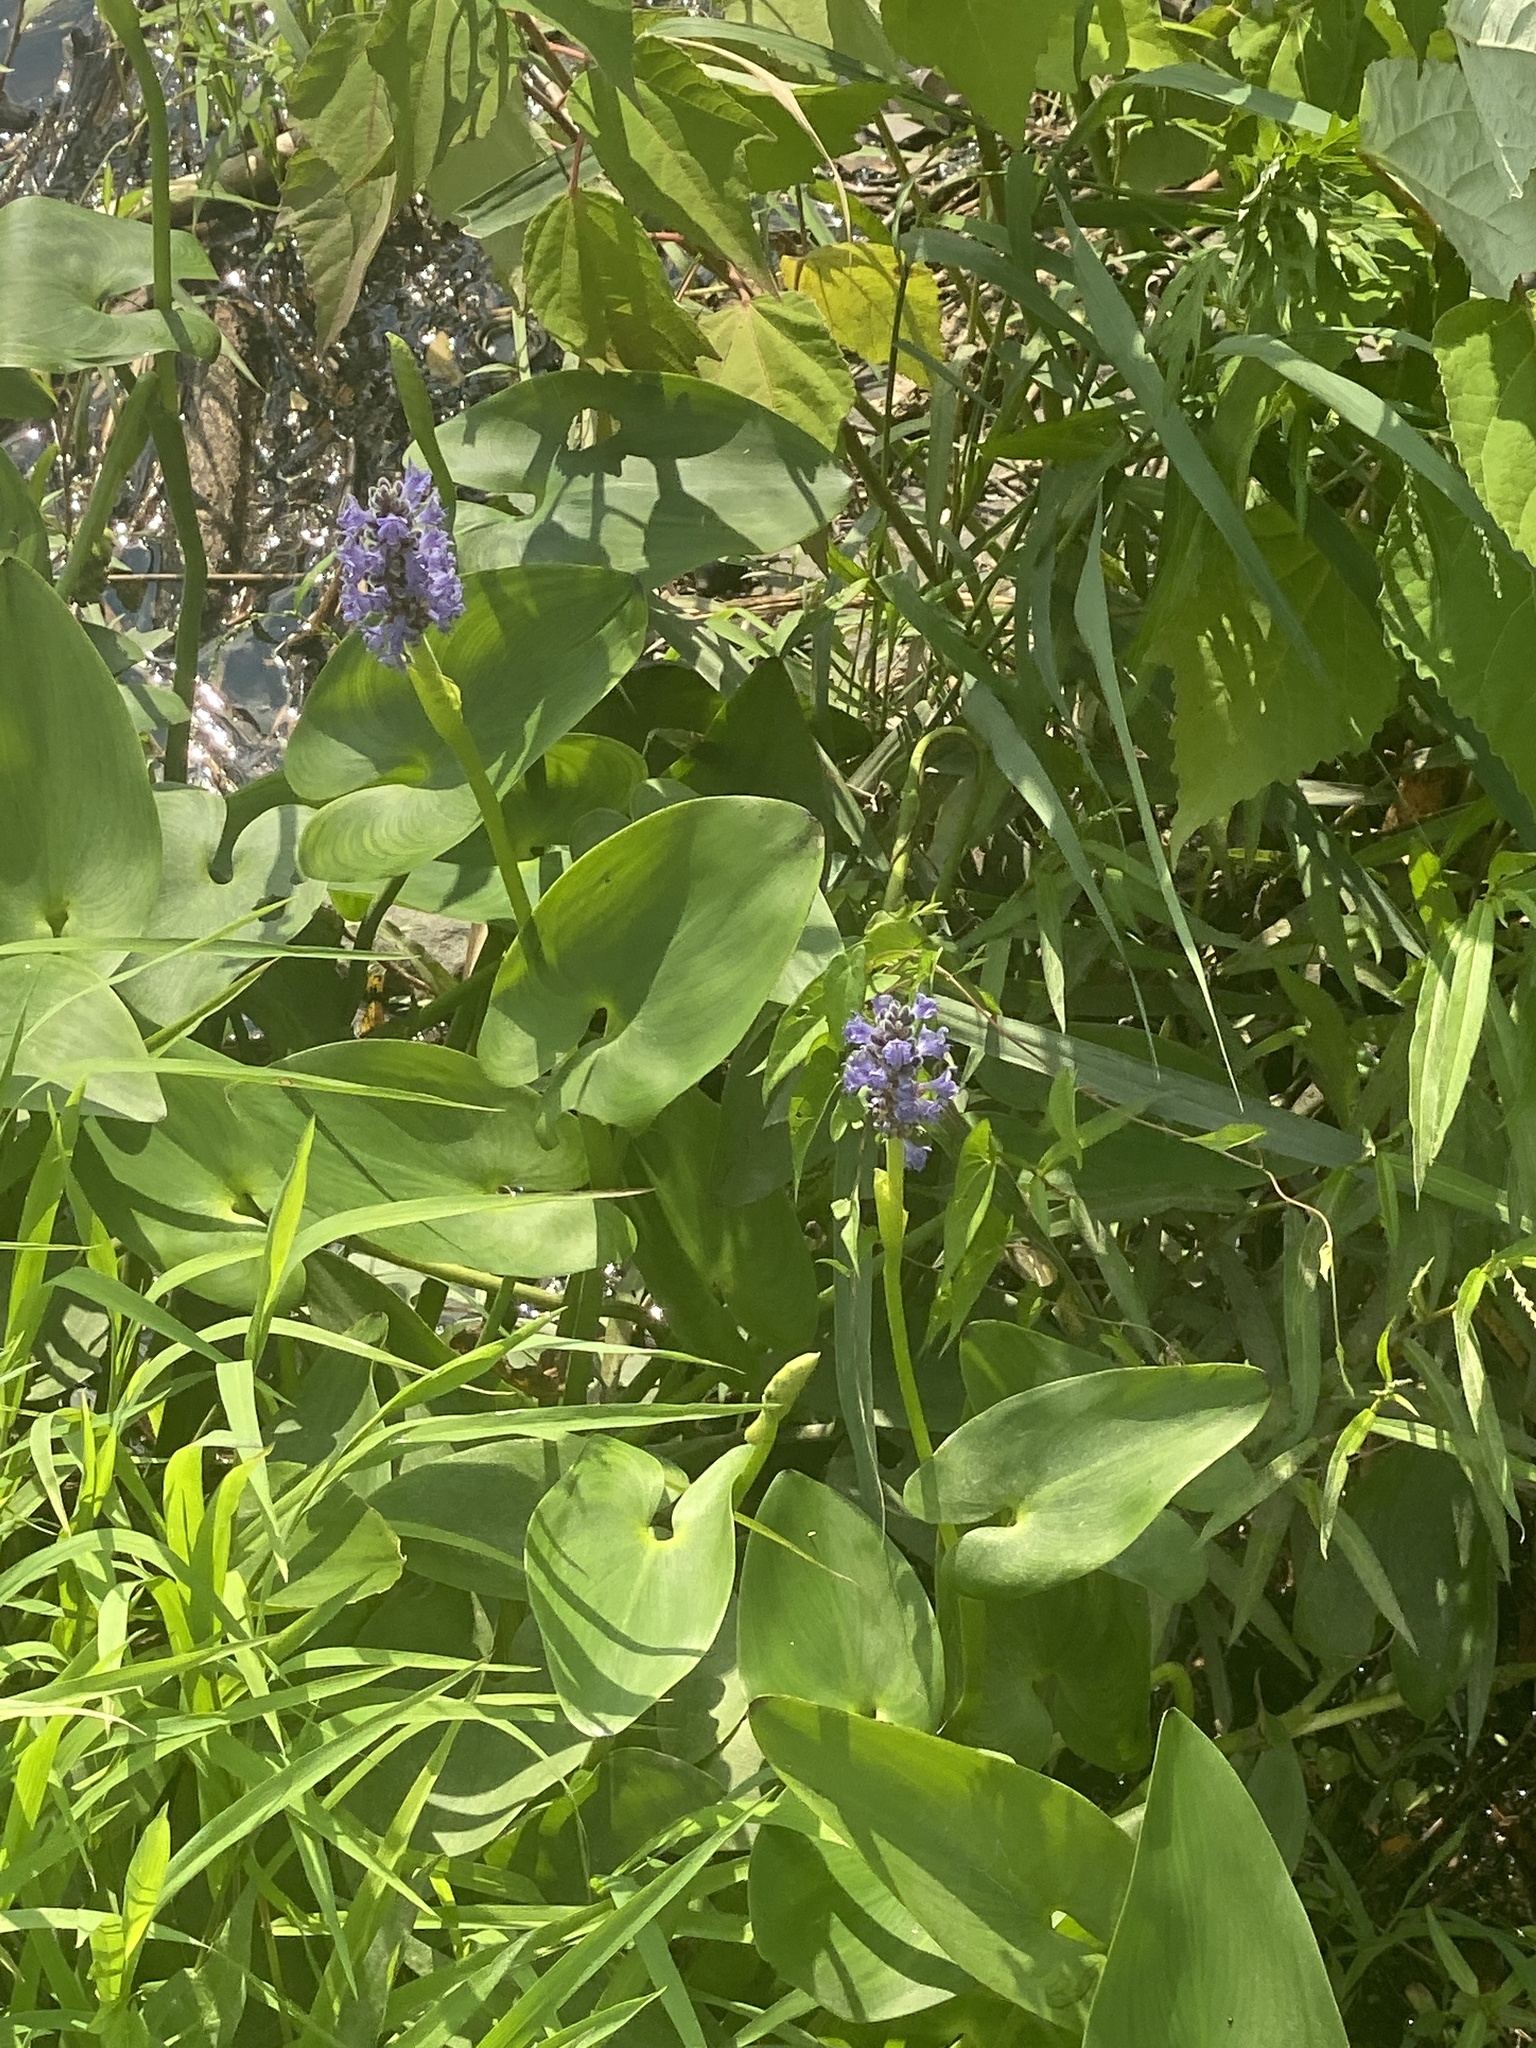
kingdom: Plantae
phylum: Tracheophyta
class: Liliopsida
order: Commelinales
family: Pontederiaceae
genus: Pontederia
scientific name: Pontederia cordata
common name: Pickerelweed
